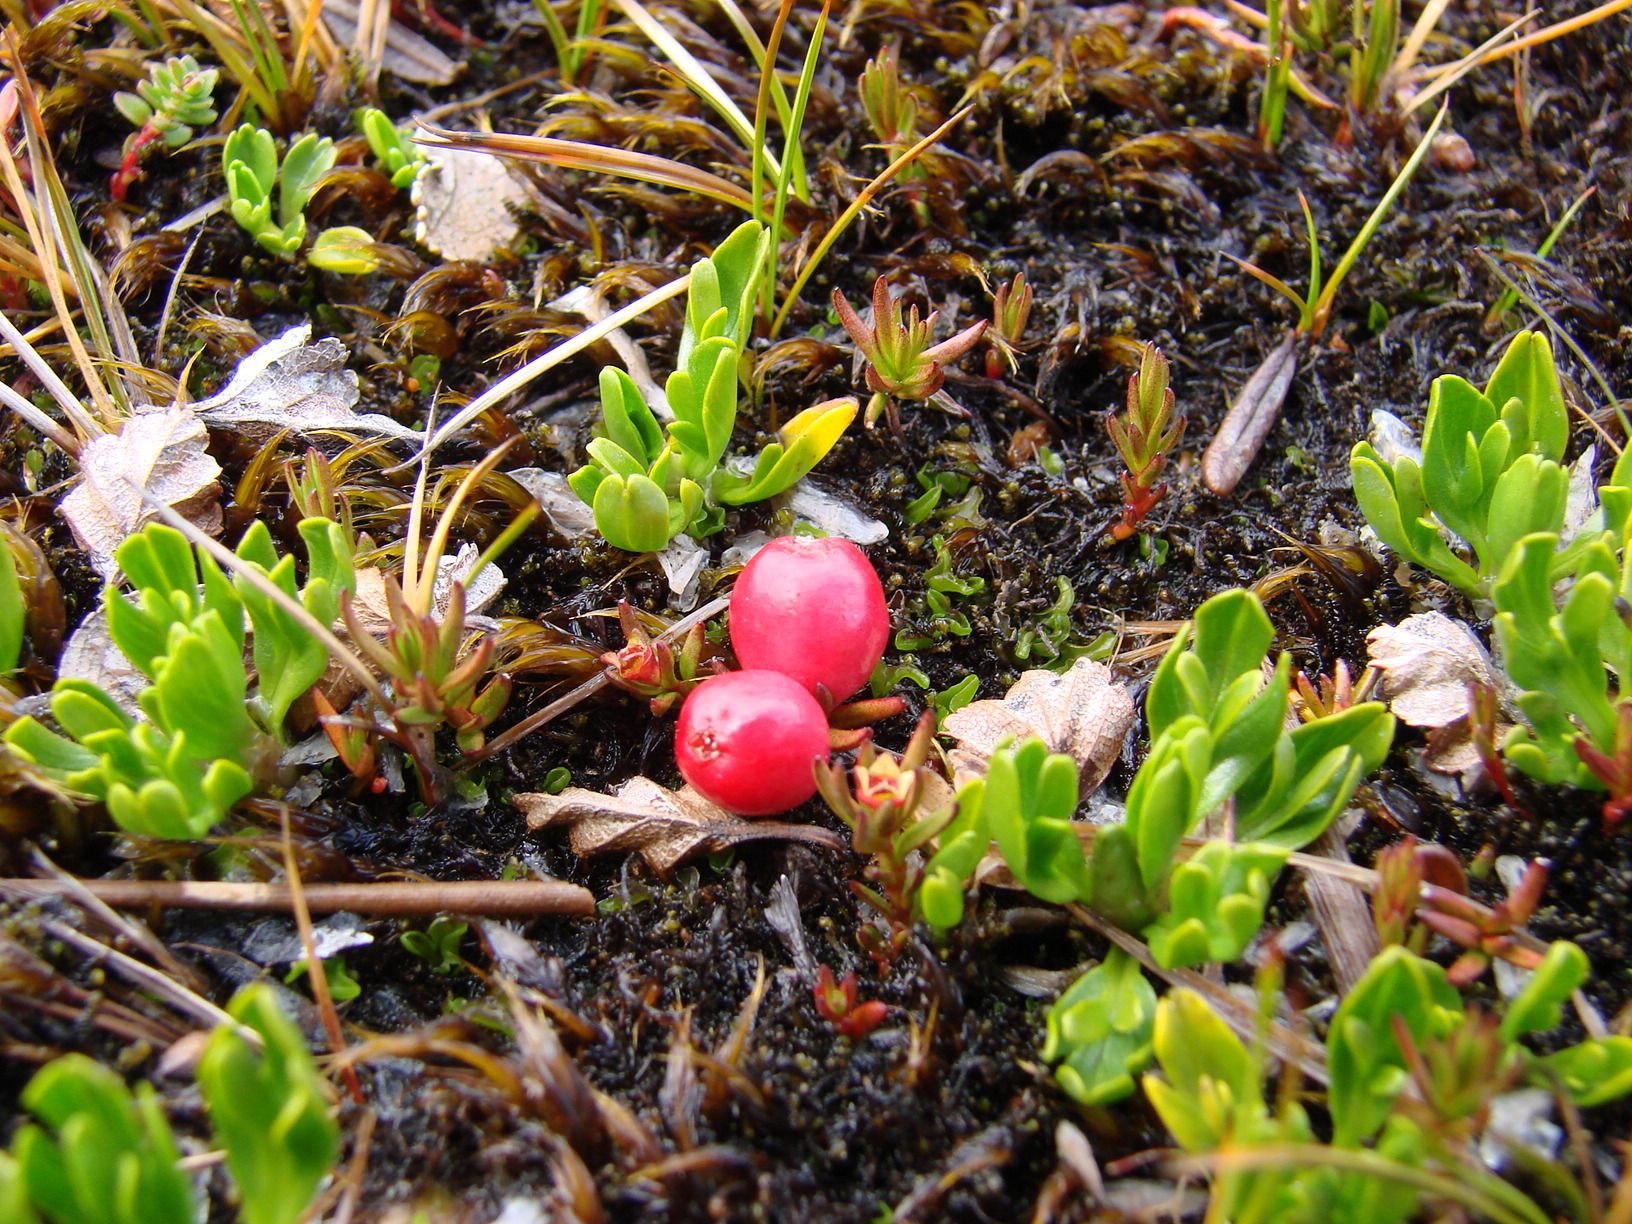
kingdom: Plantae
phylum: Tracheophyta
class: Magnoliopsida
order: Santalales
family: Nanodeaceae
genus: Nanodea
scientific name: Nanodea muscosa
